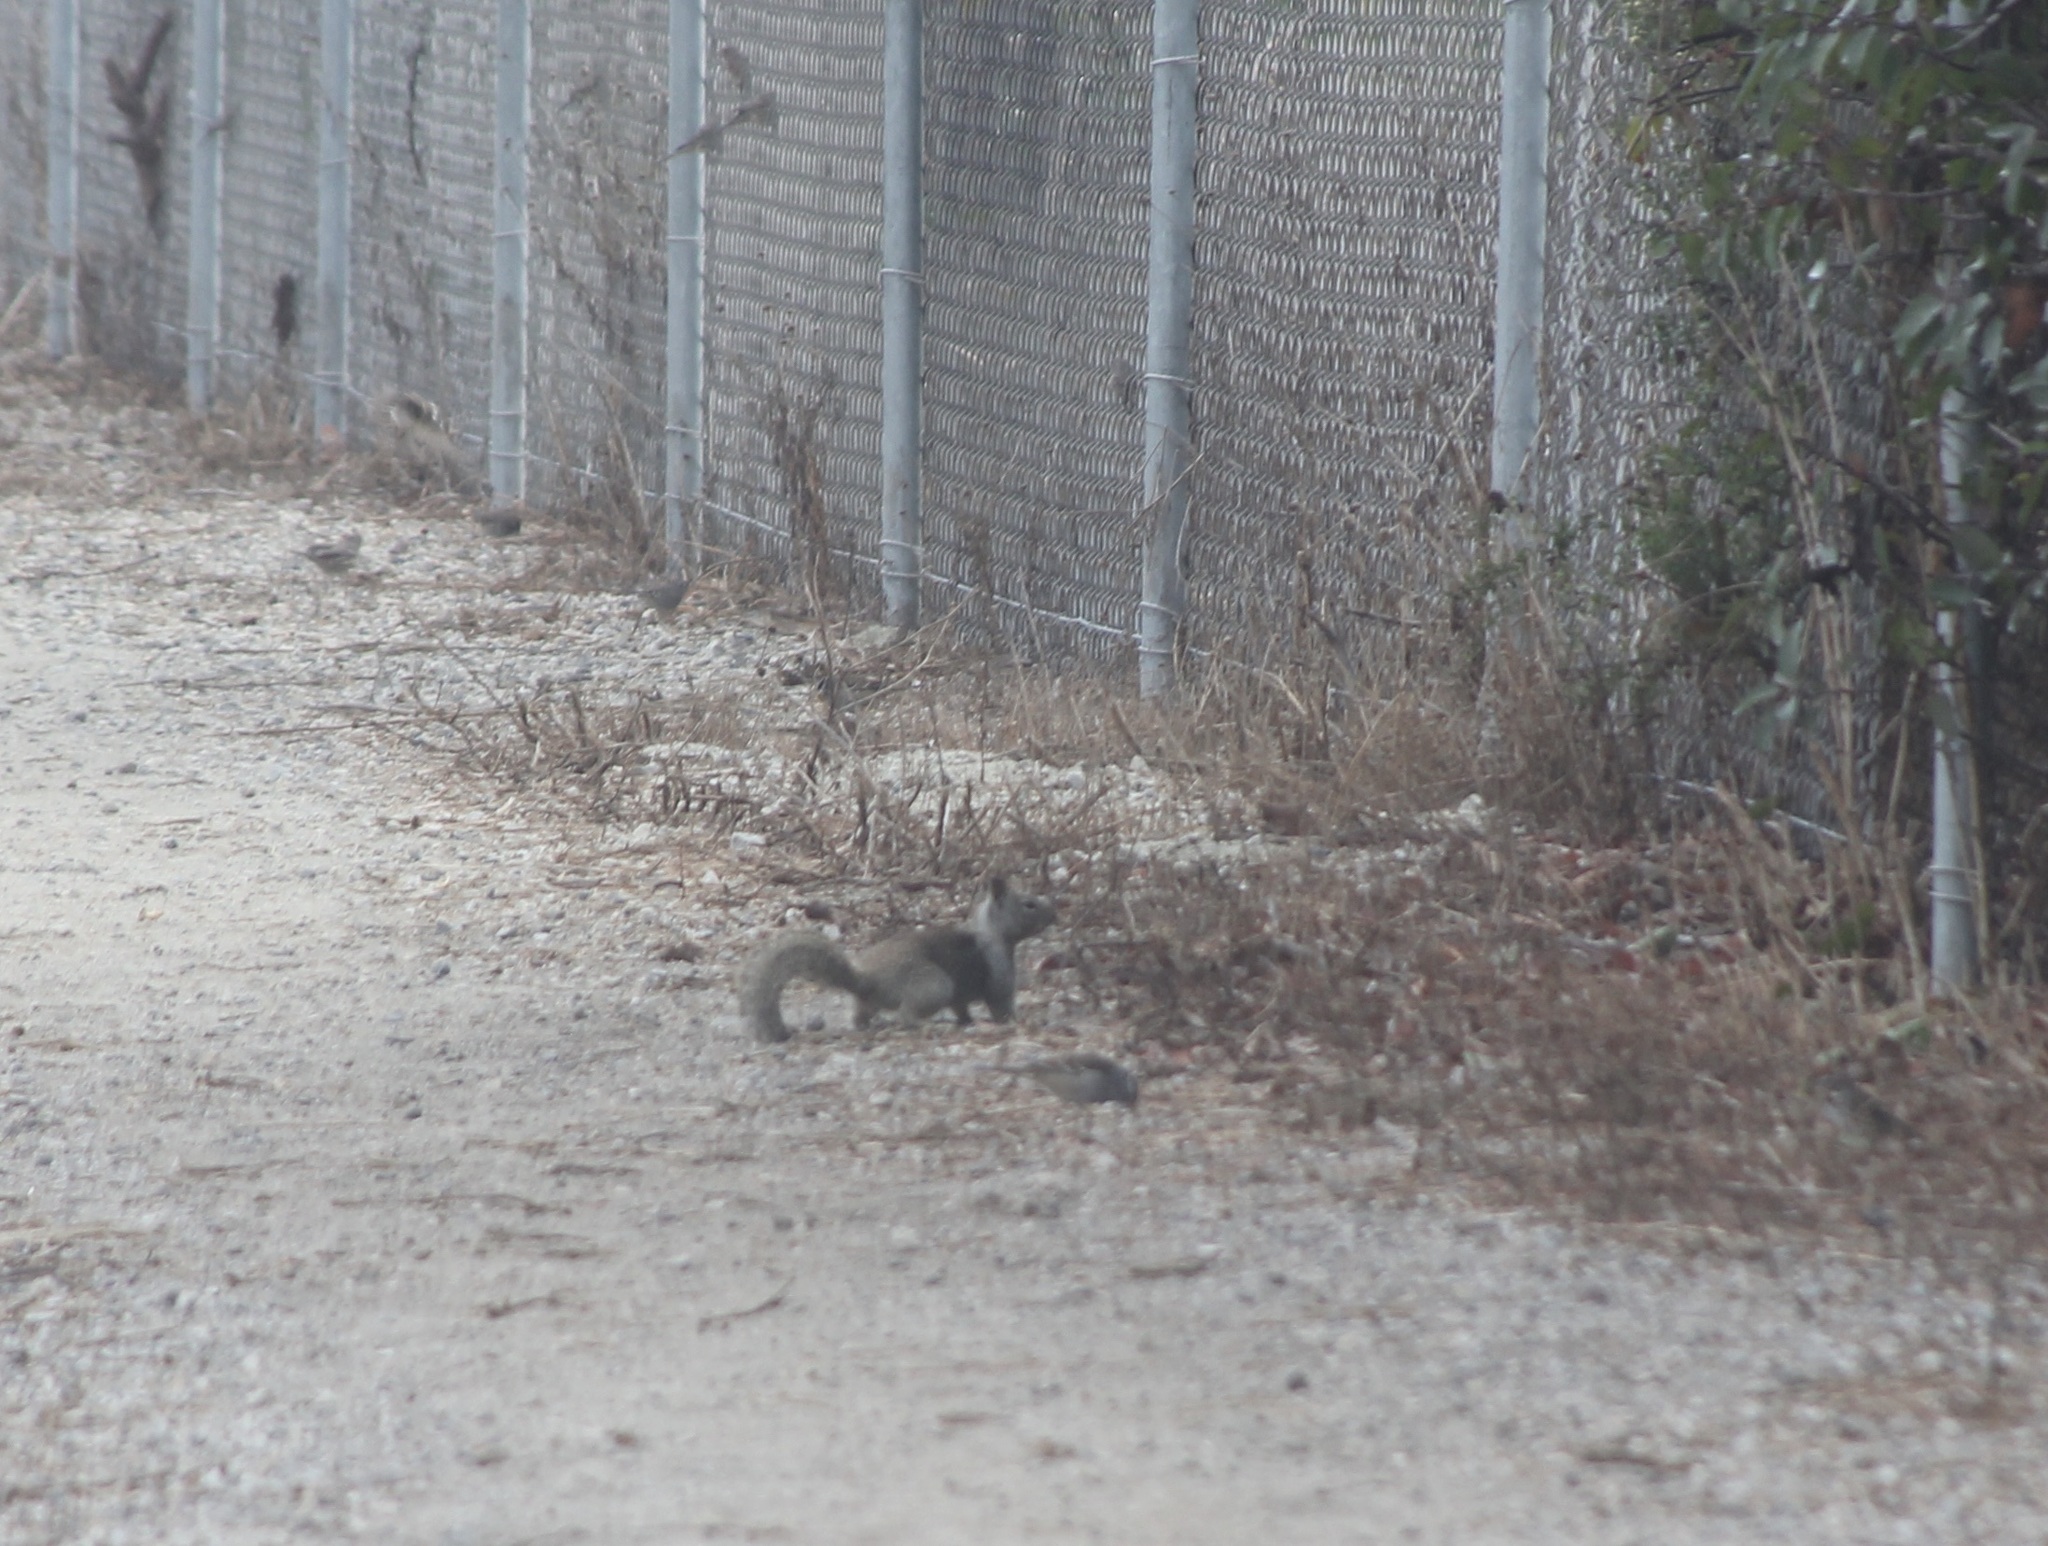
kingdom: Animalia
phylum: Chordata
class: Mammalia
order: Rodentia
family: Sciuridae
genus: Otospermophilus
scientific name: Otospermophilus beecheyi
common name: California ground squirrel
